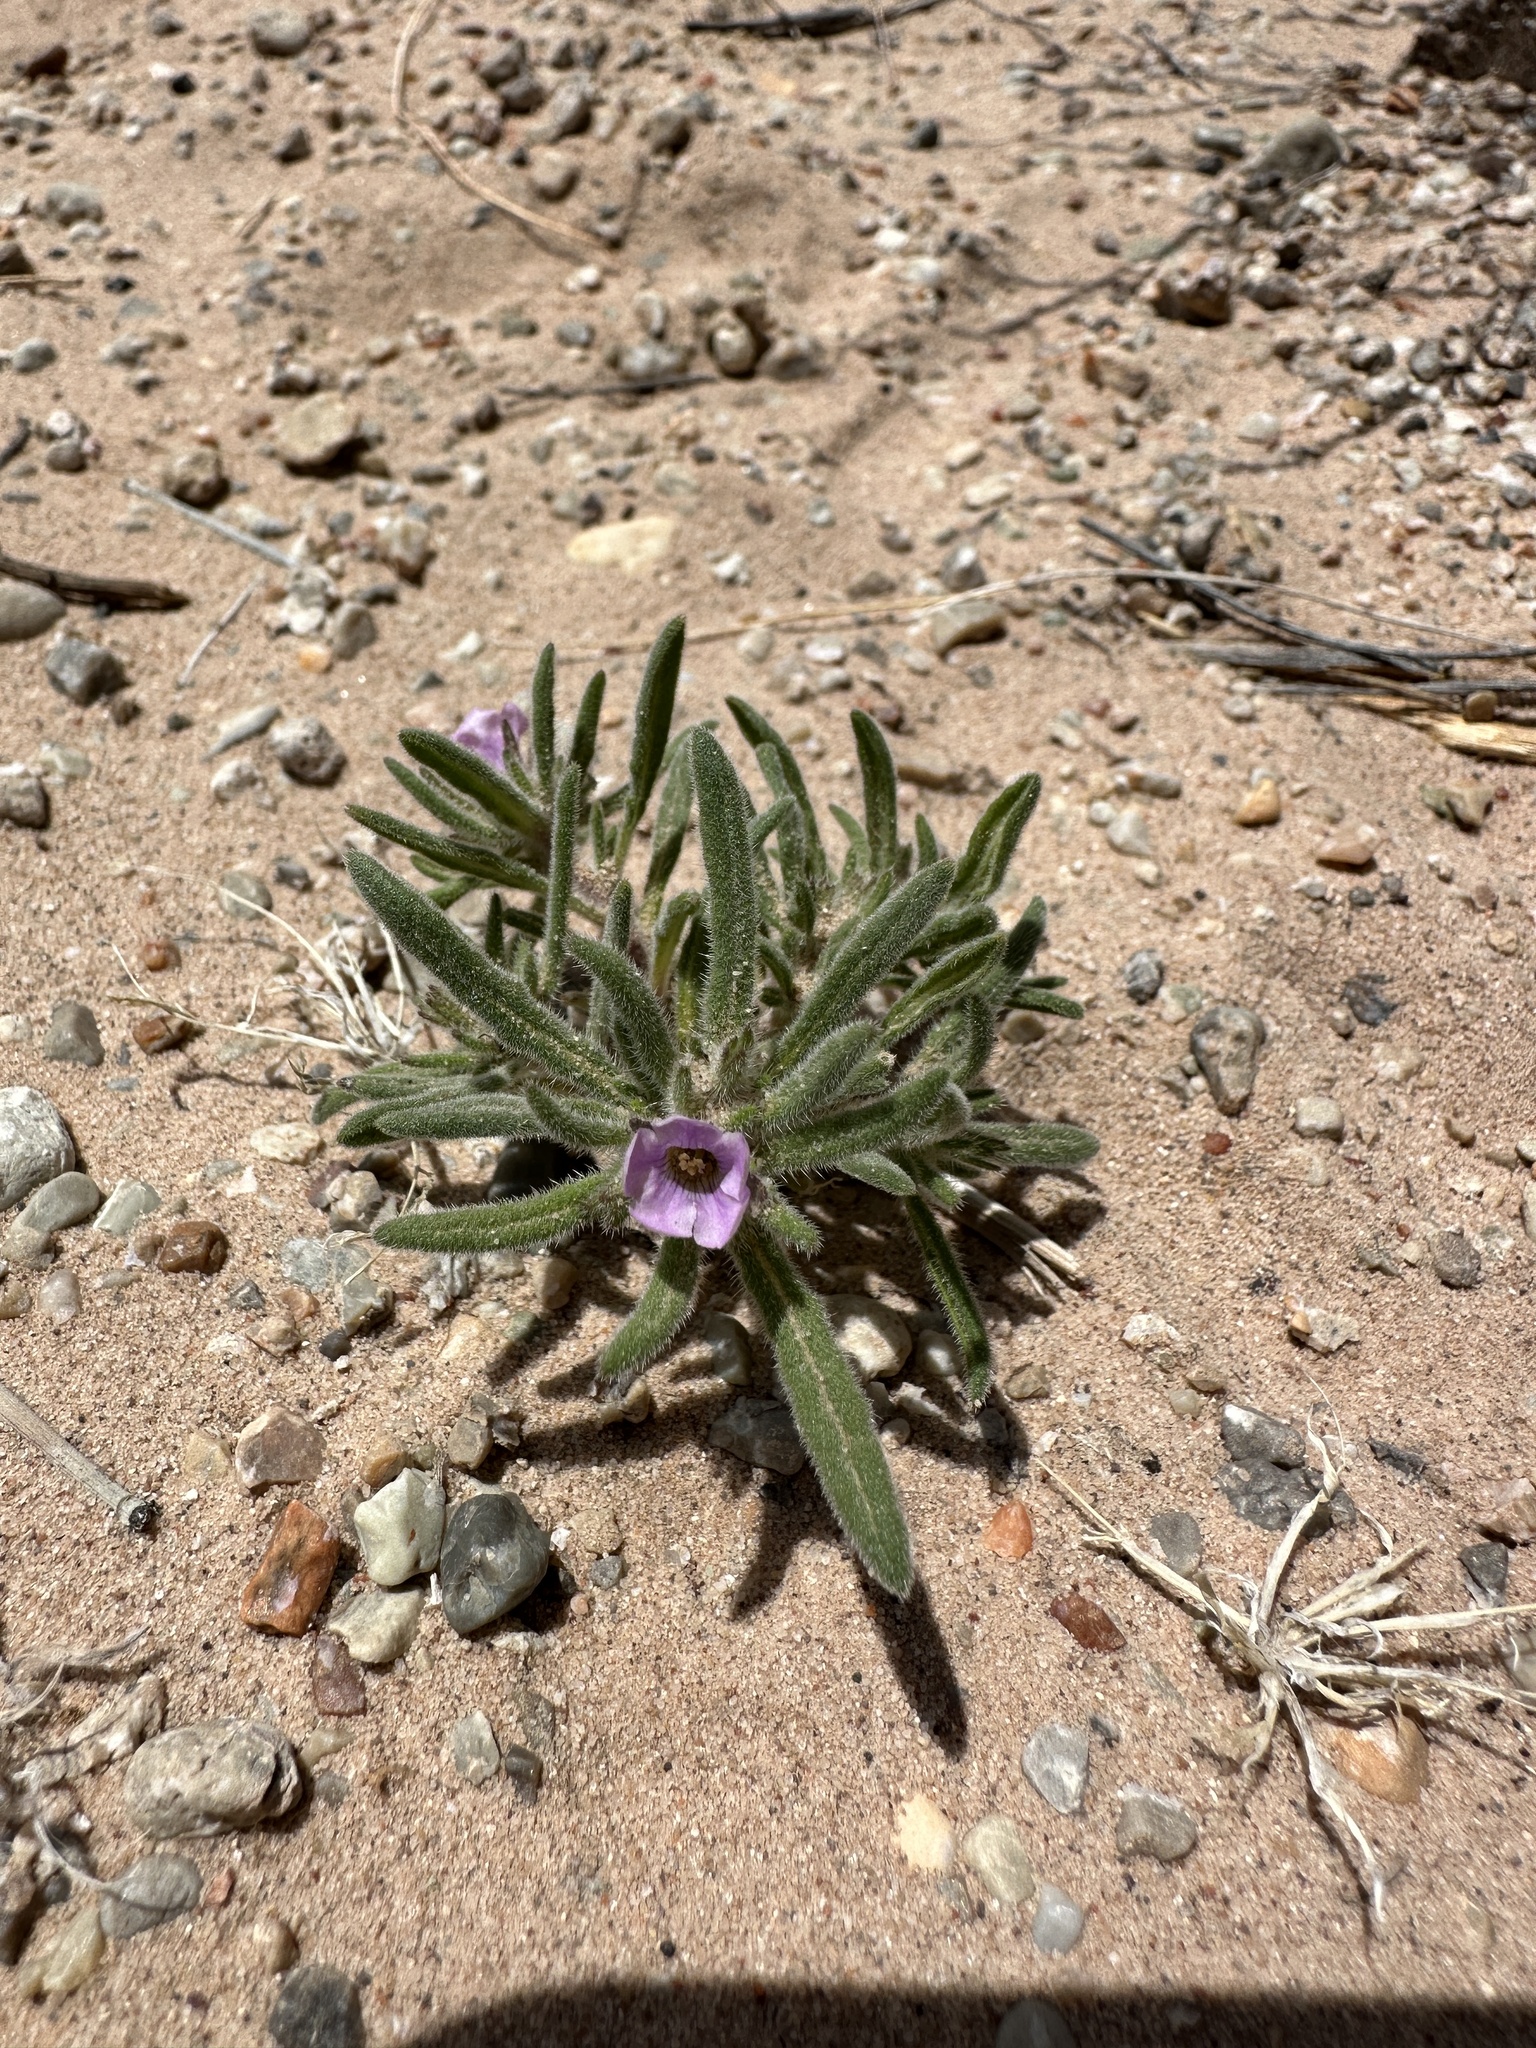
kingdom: Plantae
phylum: Tracheophyta
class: Magnoliopsida
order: Boraginales
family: Namaceae
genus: Nama
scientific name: Nama parviflora
